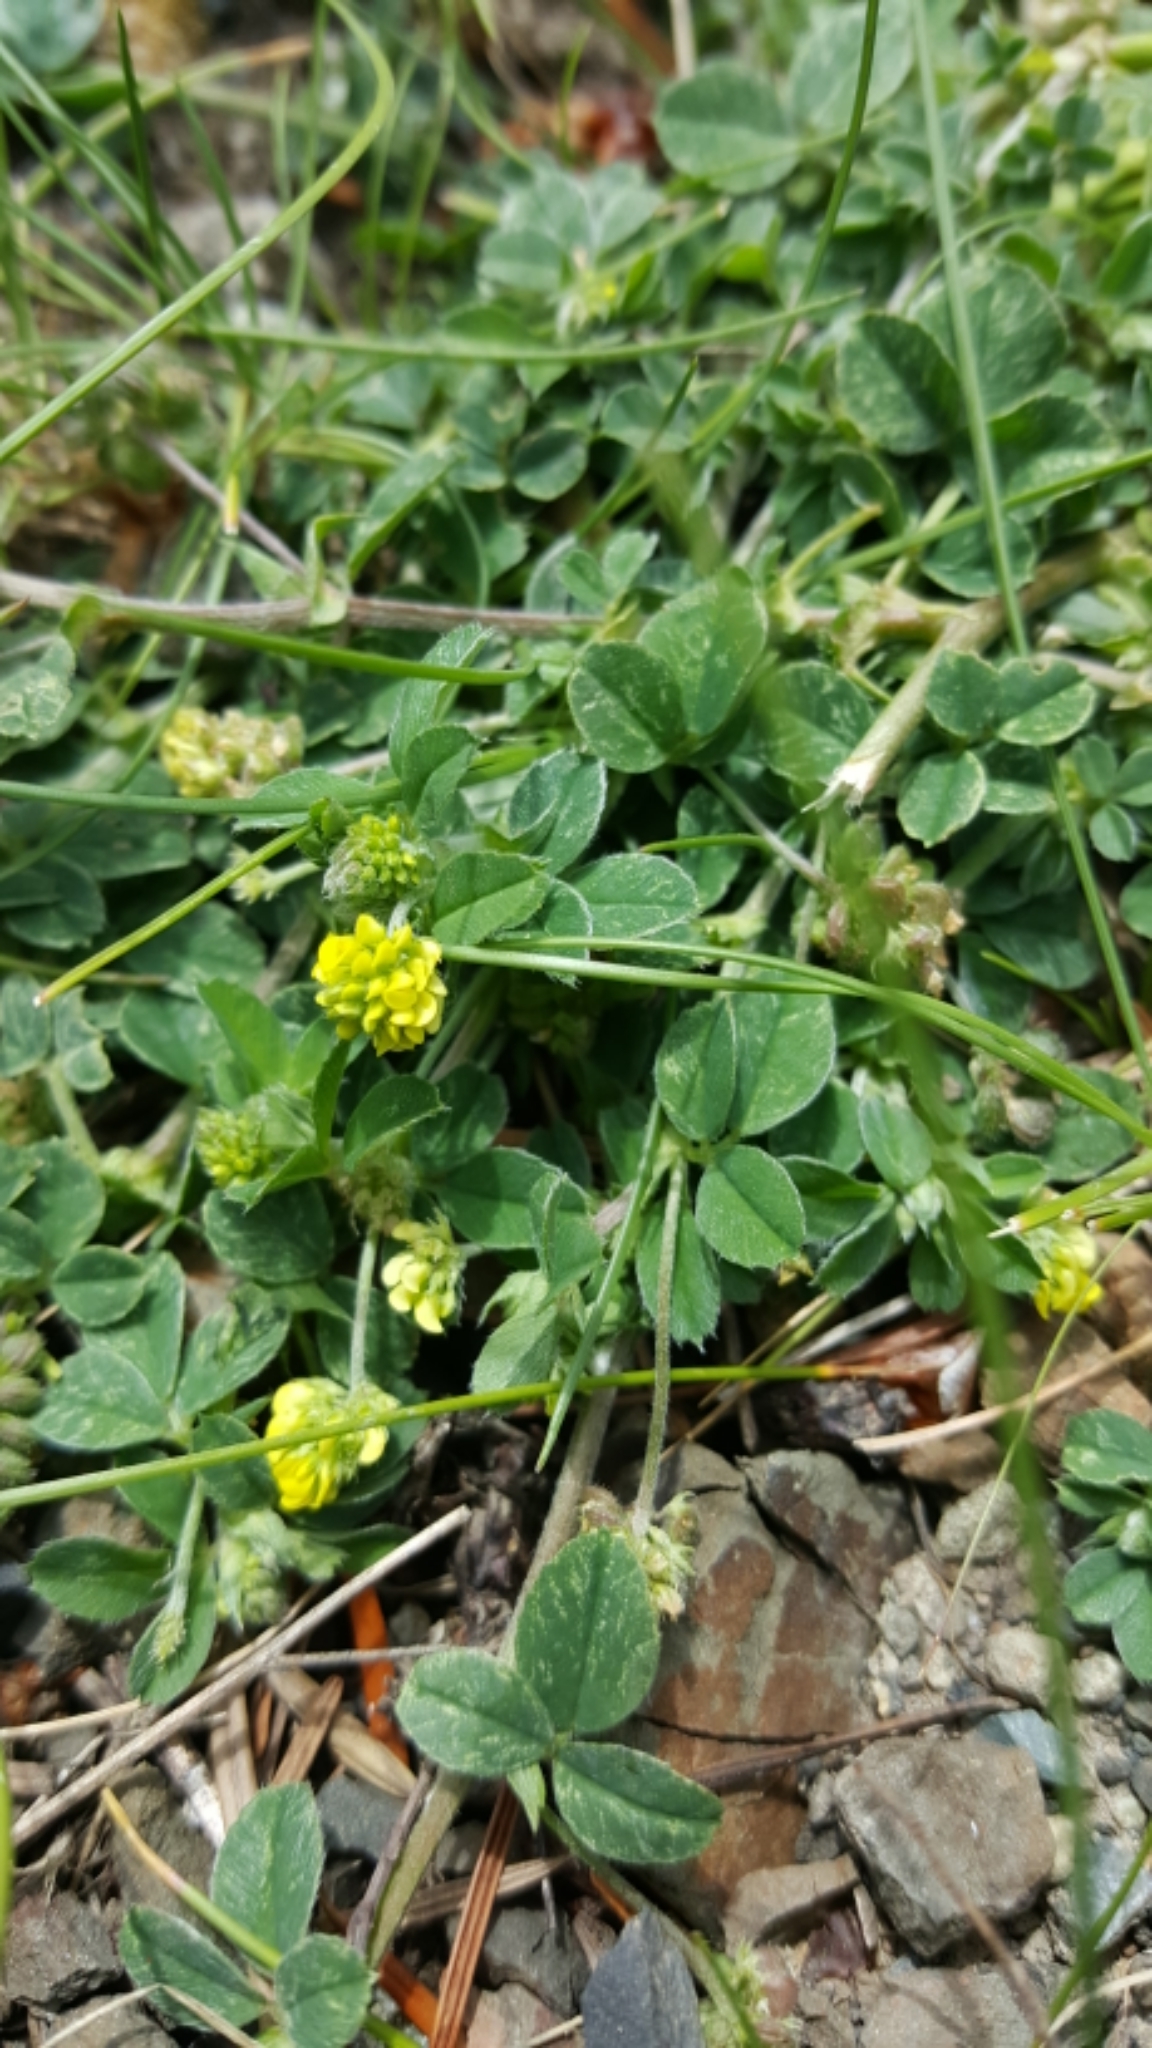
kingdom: Plantae
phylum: Tracheophyta
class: Magnoliopsida
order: Fabales
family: Fabaceae
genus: Medicago
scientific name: Medicago lupulina
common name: Black medick
